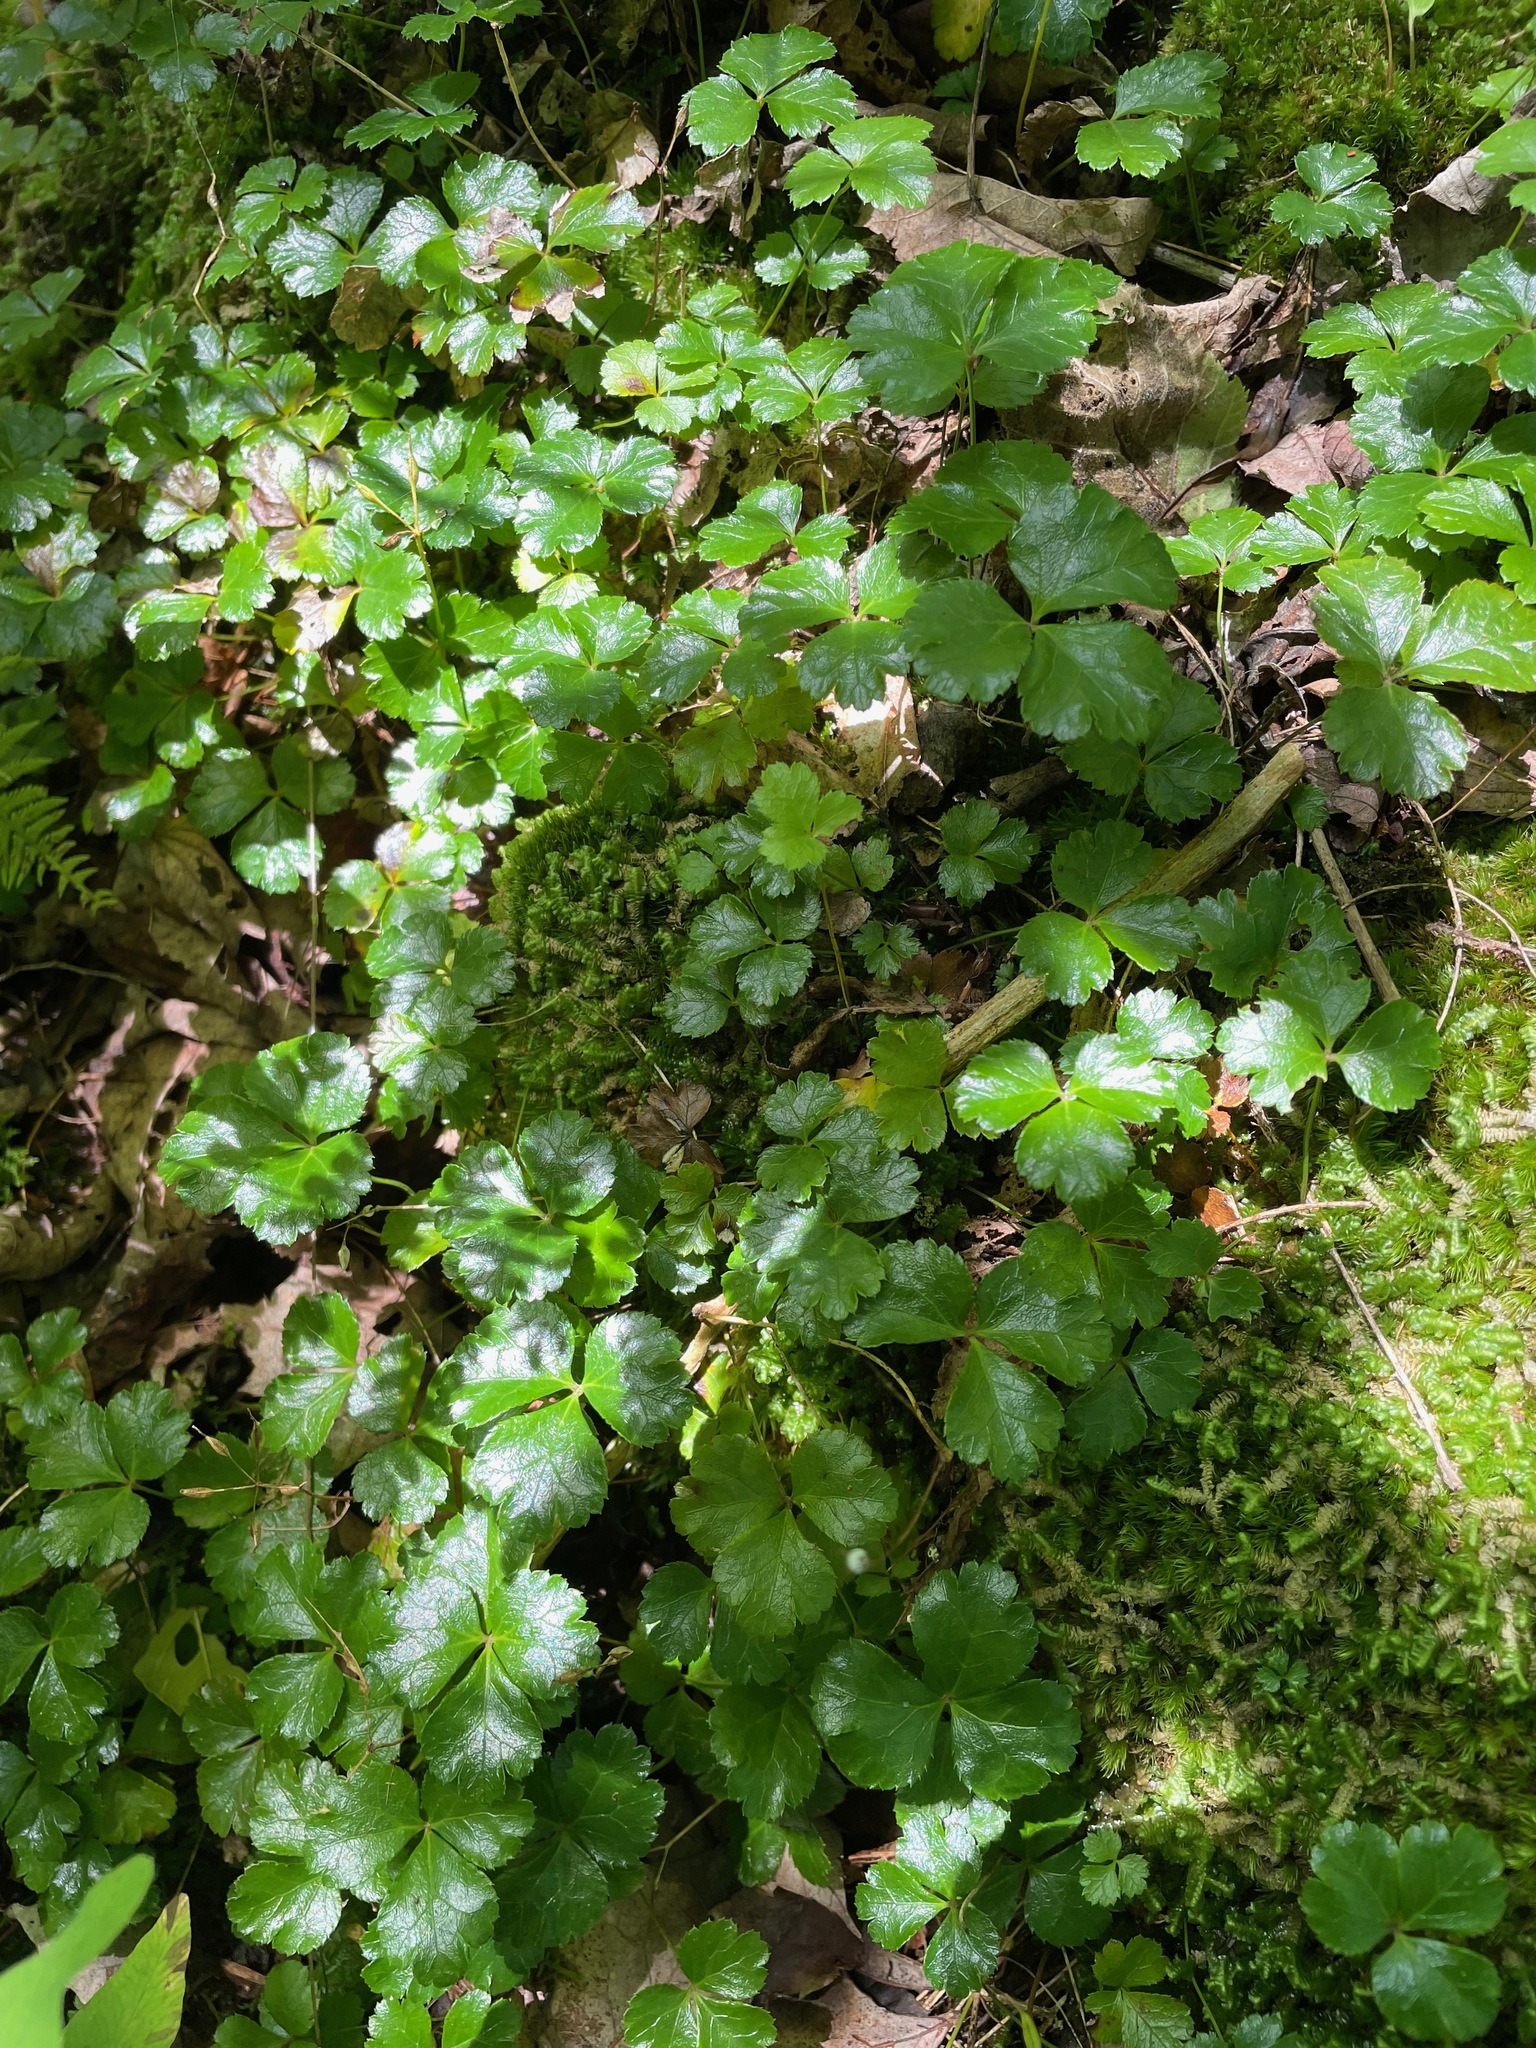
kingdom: Plantae
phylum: Tracheophyta
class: Magnoliopsida
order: Ranunculales
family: Ranunculaceae
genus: Coptis
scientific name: Coptis trifolia
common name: Canker-root
